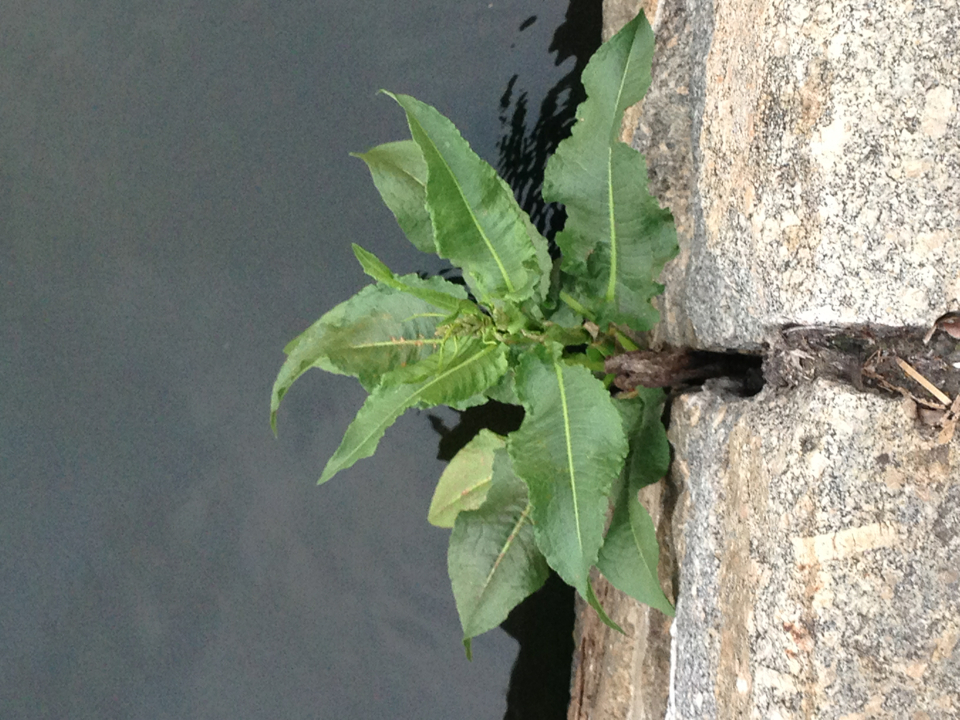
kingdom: Plantae
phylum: Tracheophyta
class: Magnoliopsida
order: Caryophyllales
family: Polygonaceae
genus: Rumex
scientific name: Rumex crispus
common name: Curled dock
